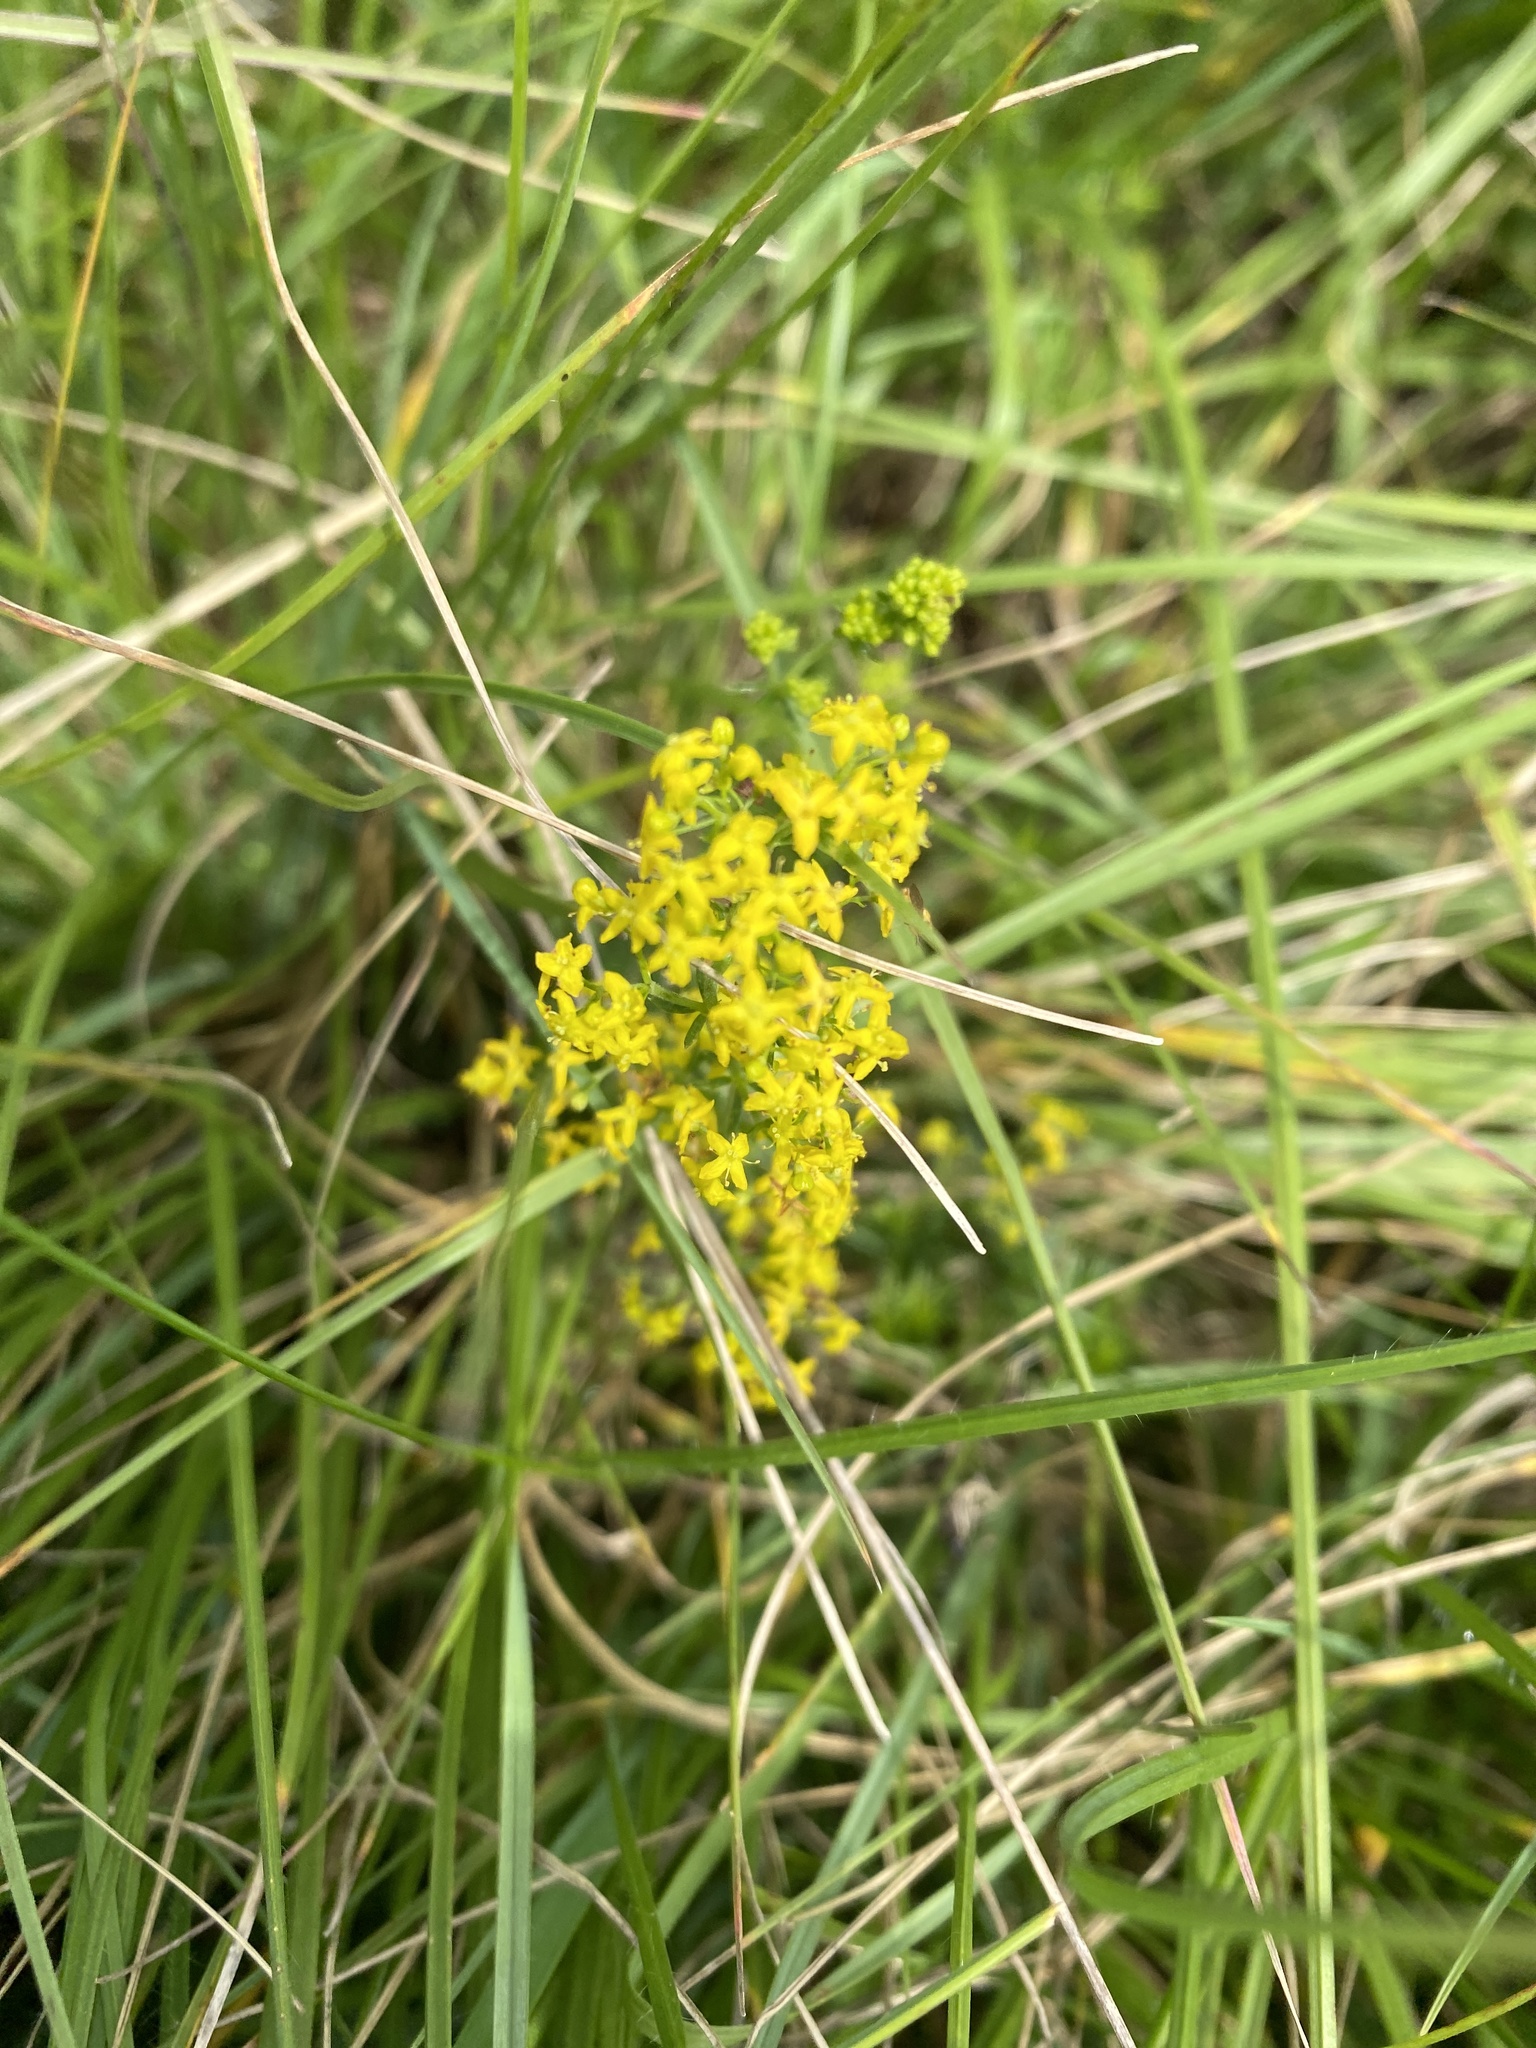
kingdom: Plantae
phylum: Tracheophyta
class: Magnoliopsida
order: Gentianales
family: Rubiaceae
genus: Galium
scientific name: Galium verum
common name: Lady's bedstraw
